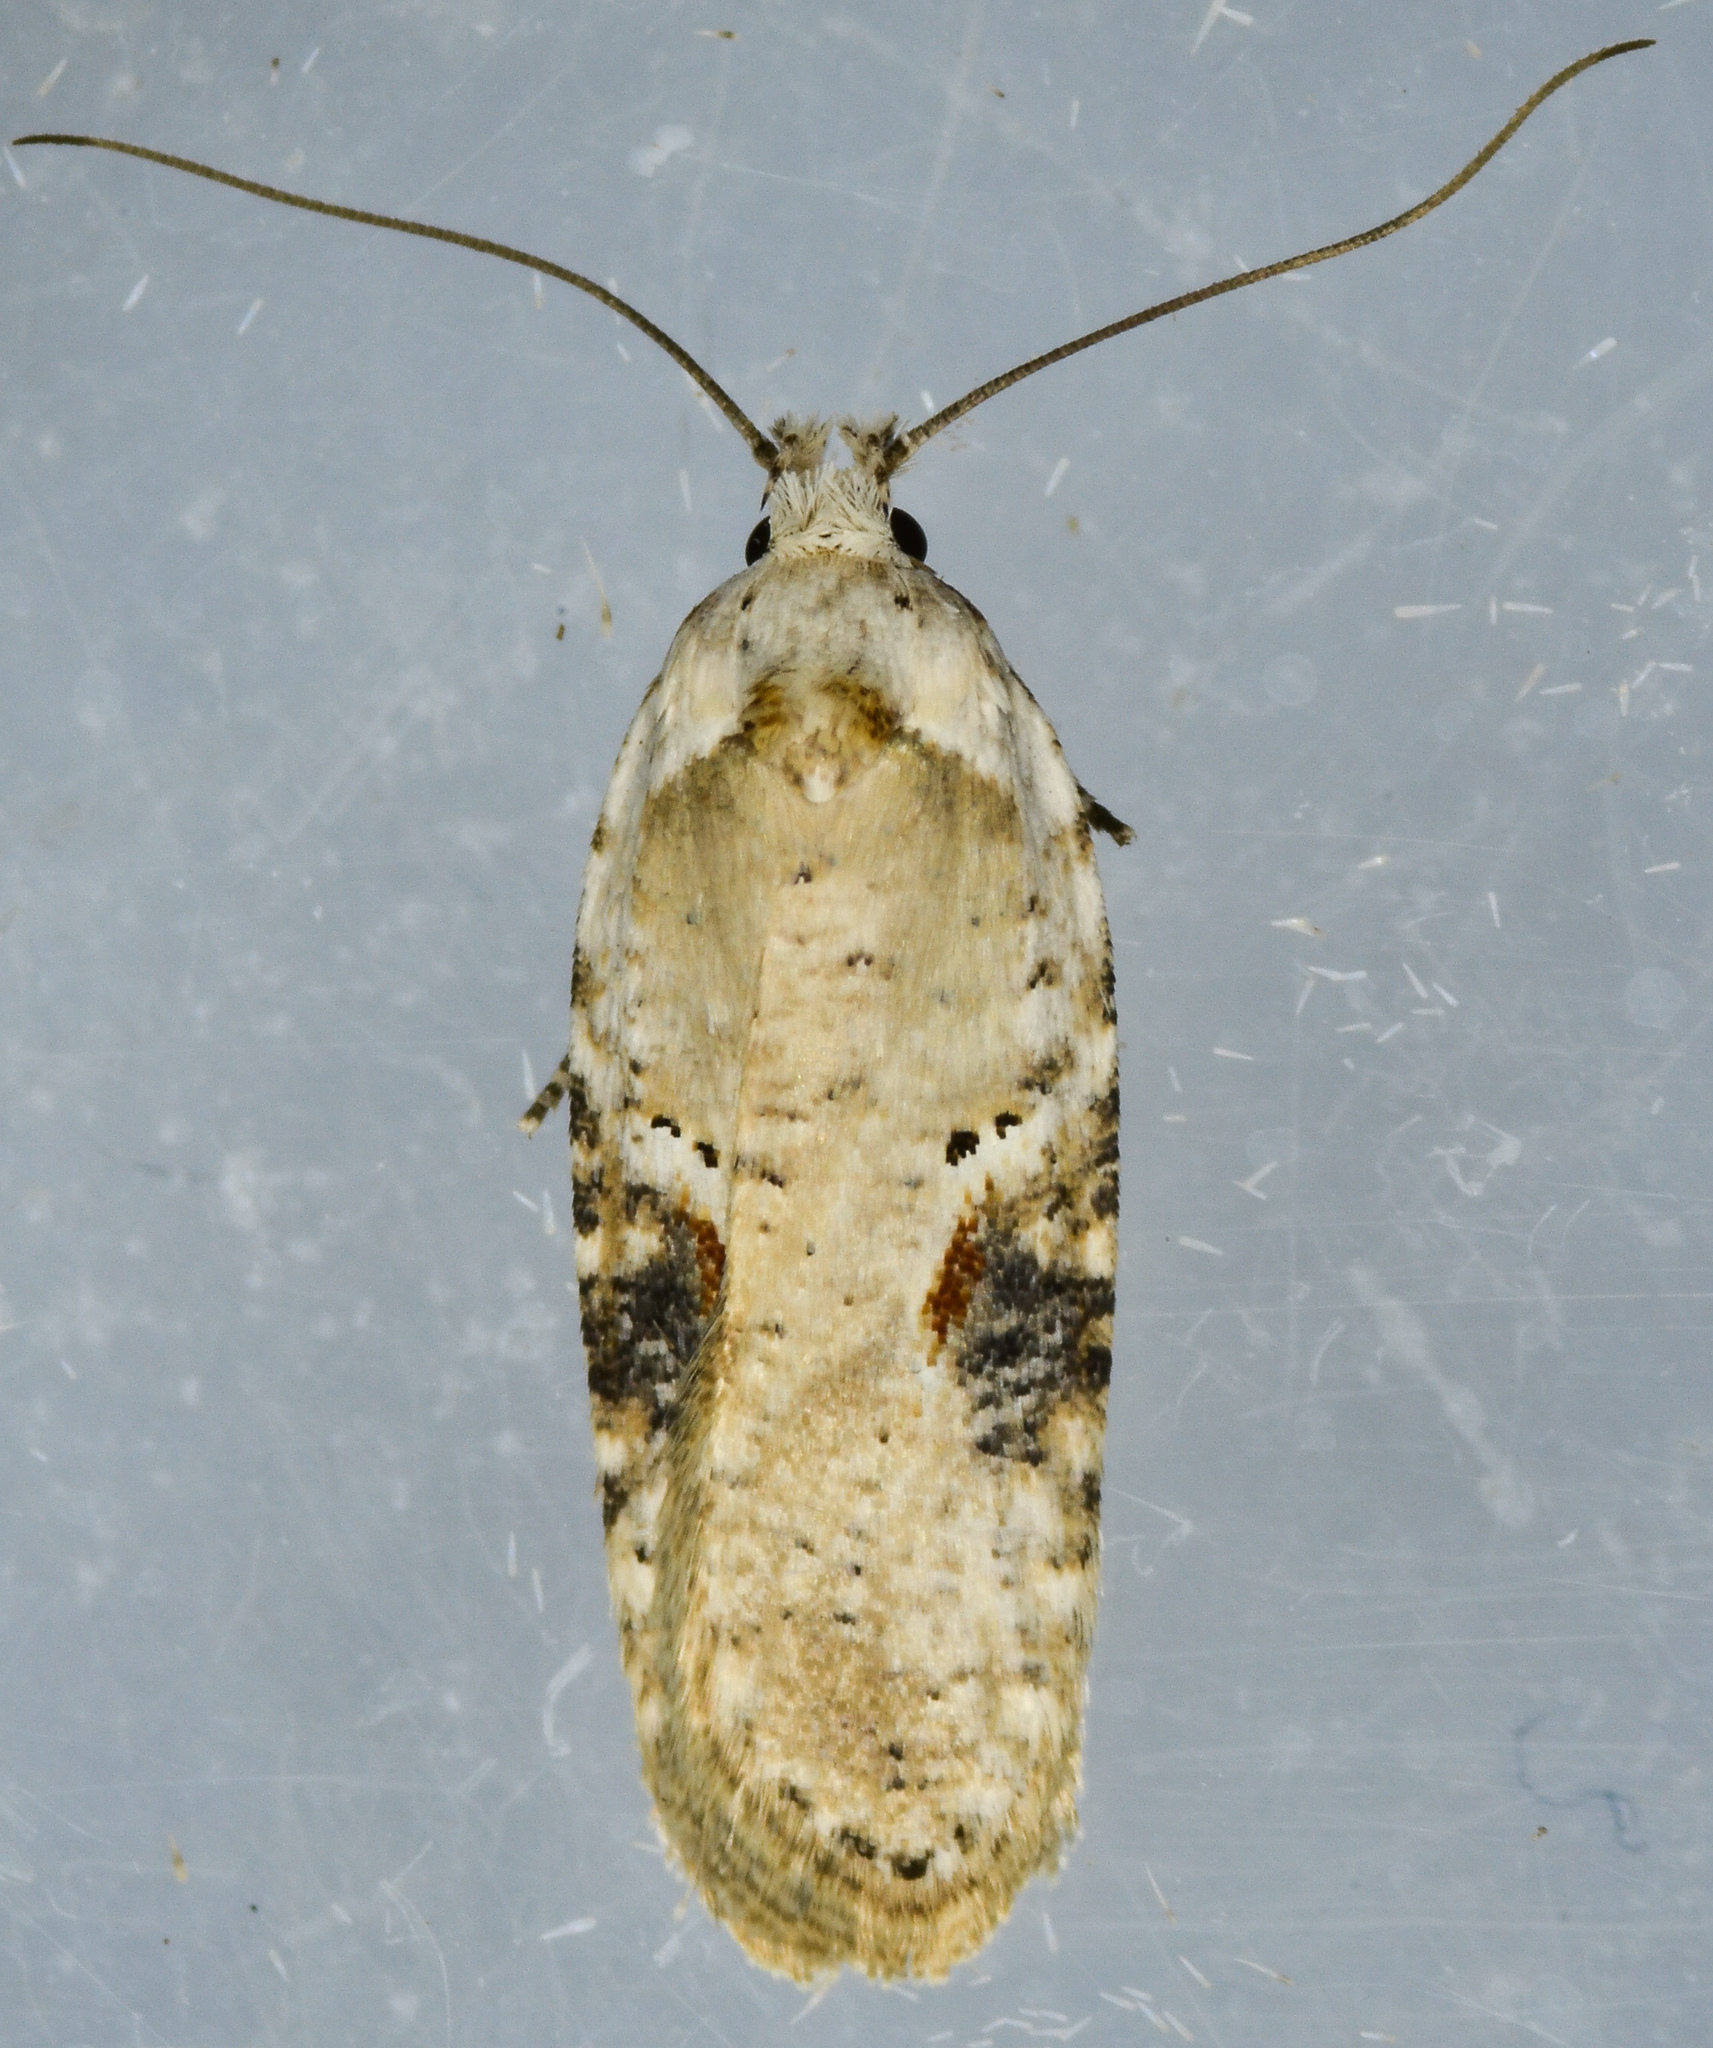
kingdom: Animalia
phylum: Arthropoda
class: Insecta
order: Lepidoptera
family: Depressariidae
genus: Agonopterix
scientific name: Agonopterix alstroemeriana
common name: Moth
